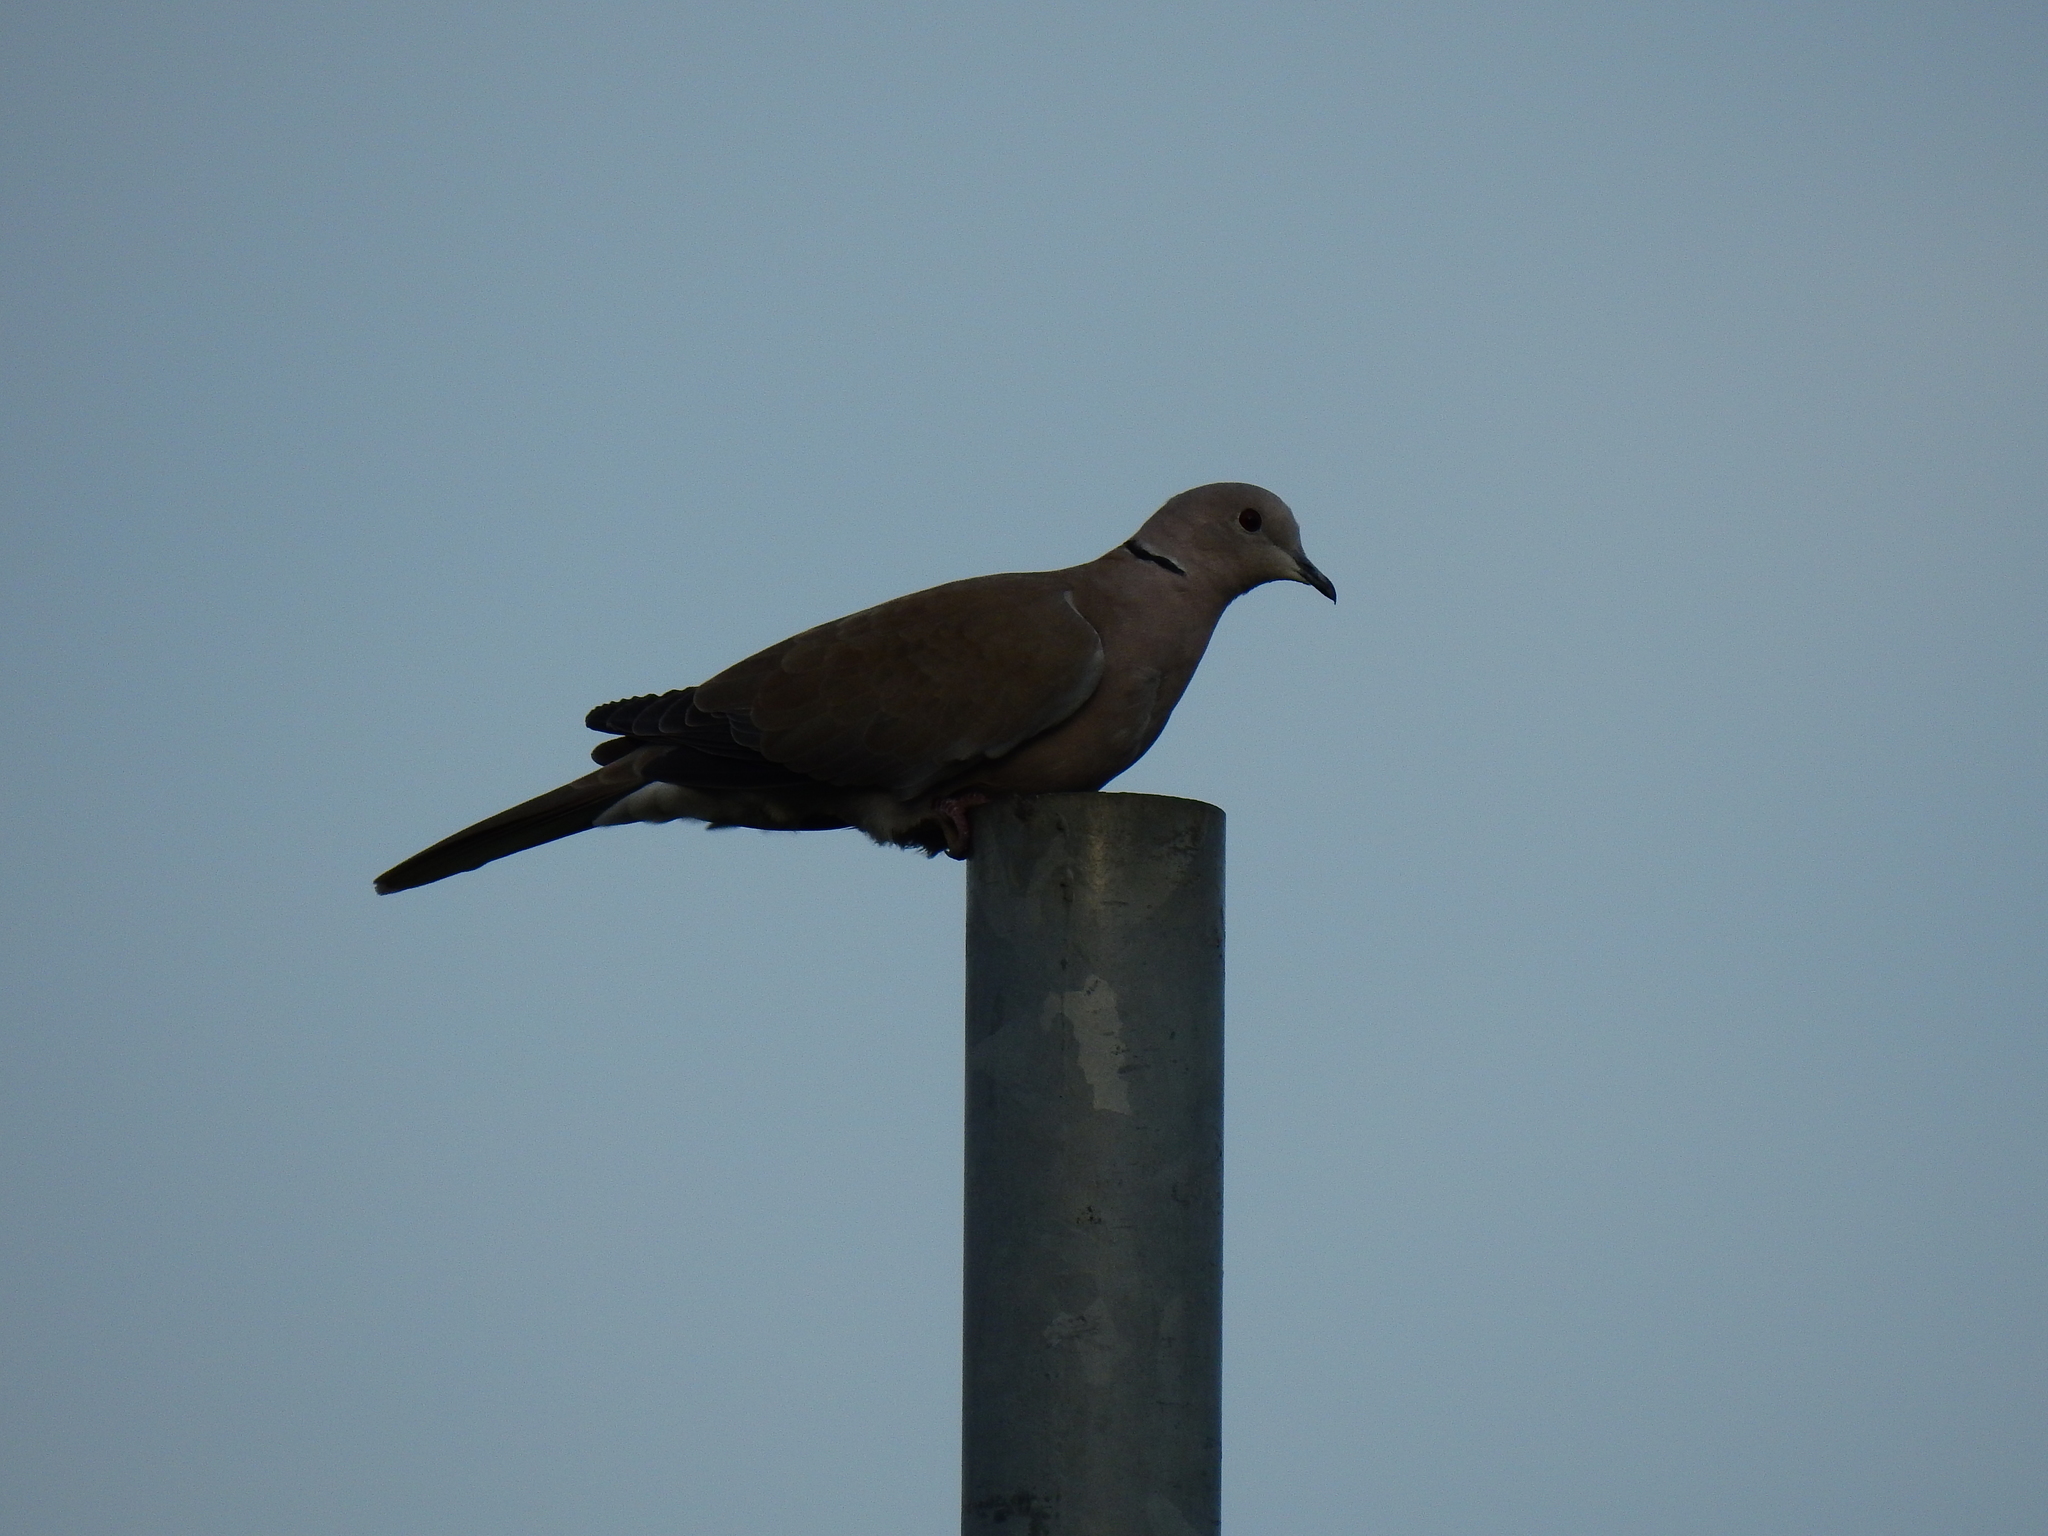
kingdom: Animalia
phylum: Chordata
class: Aves
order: Columbiformes
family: Columbidae
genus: Streptopelia
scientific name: Streptopelia decaocto
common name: Eurasian collared dove
